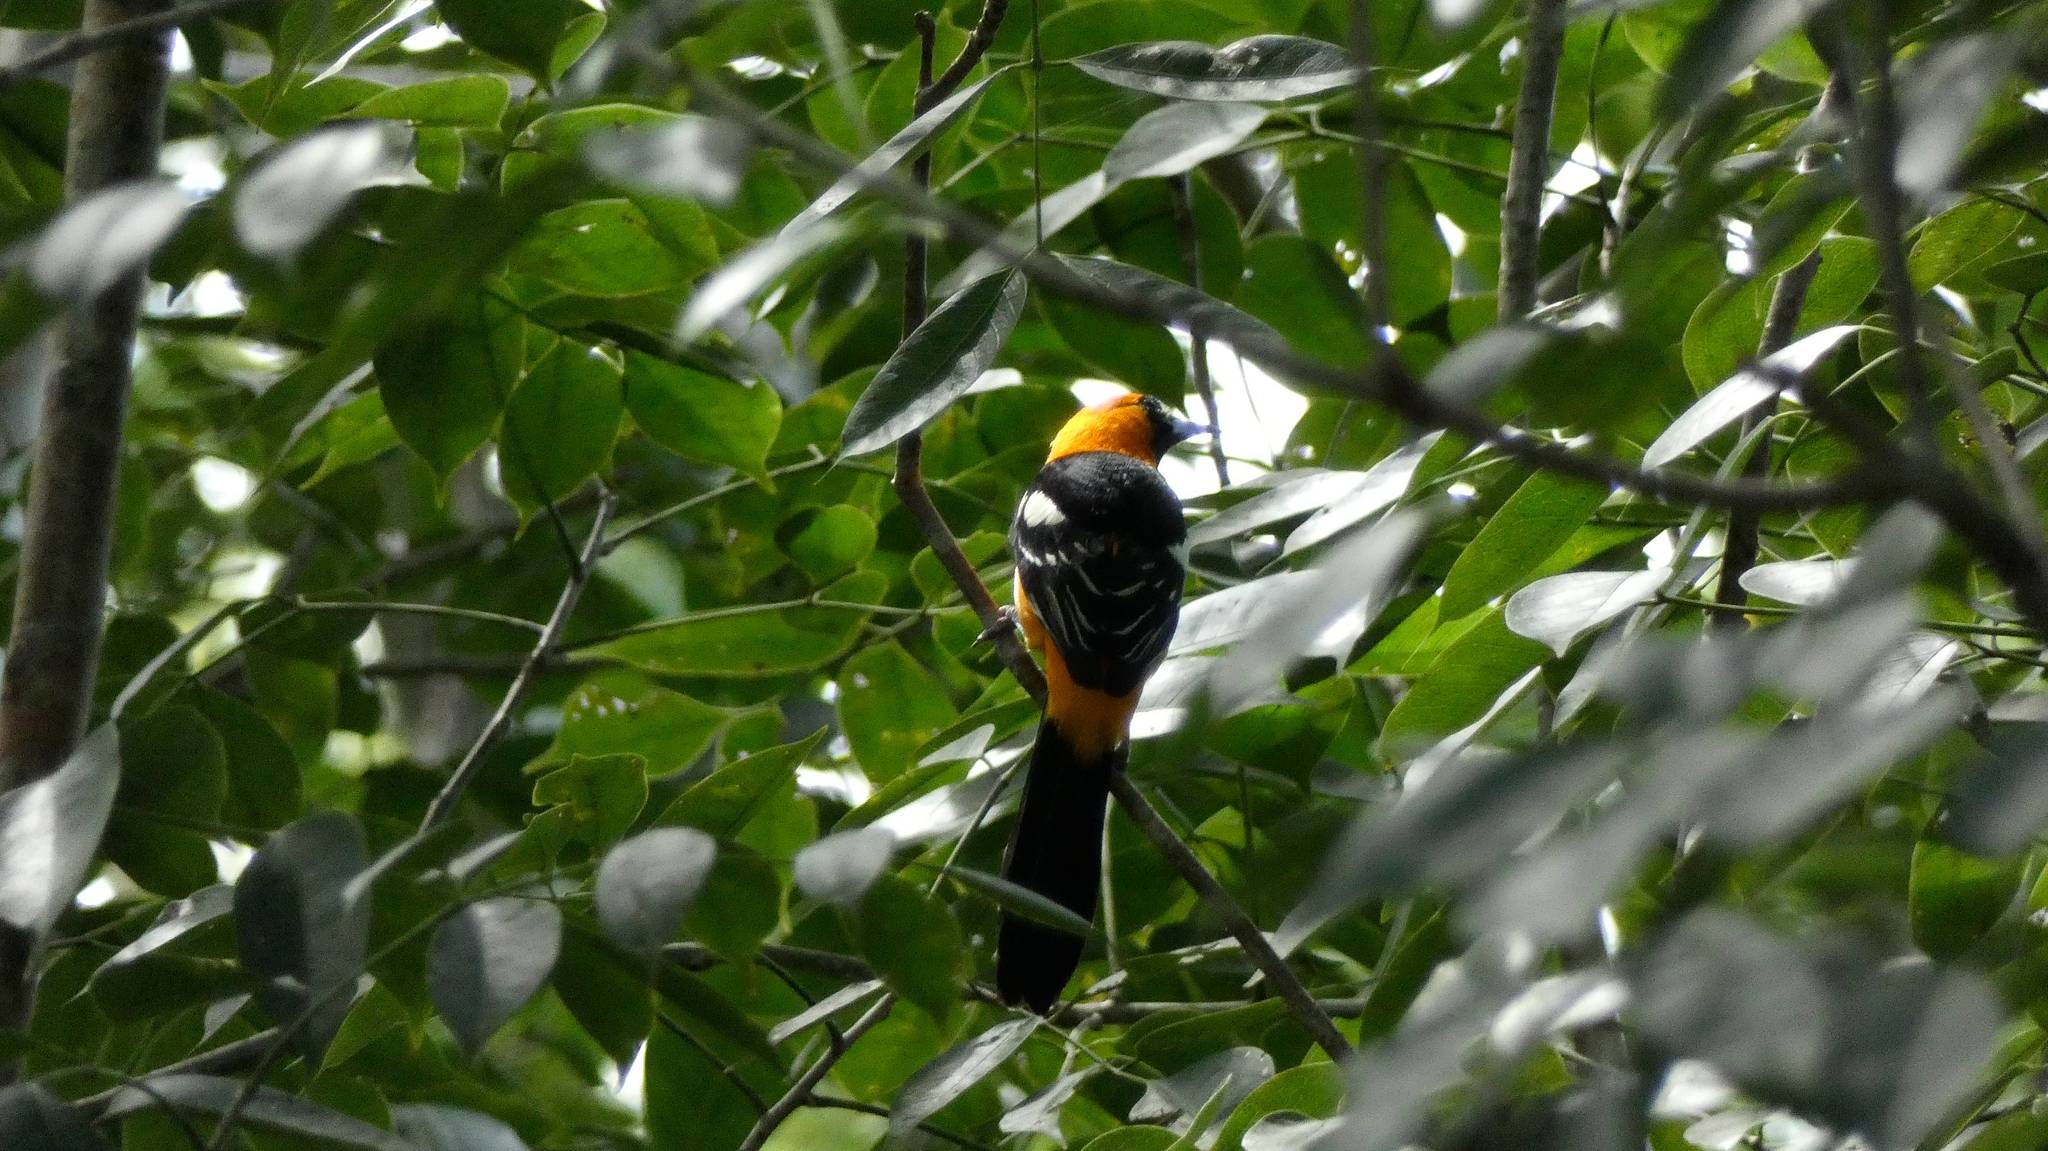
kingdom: Animalia
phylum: Chordata
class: Aves
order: Passeriformes
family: Icteridae
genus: Icterus
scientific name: Icterus cucullatus
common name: Hooded oriole
